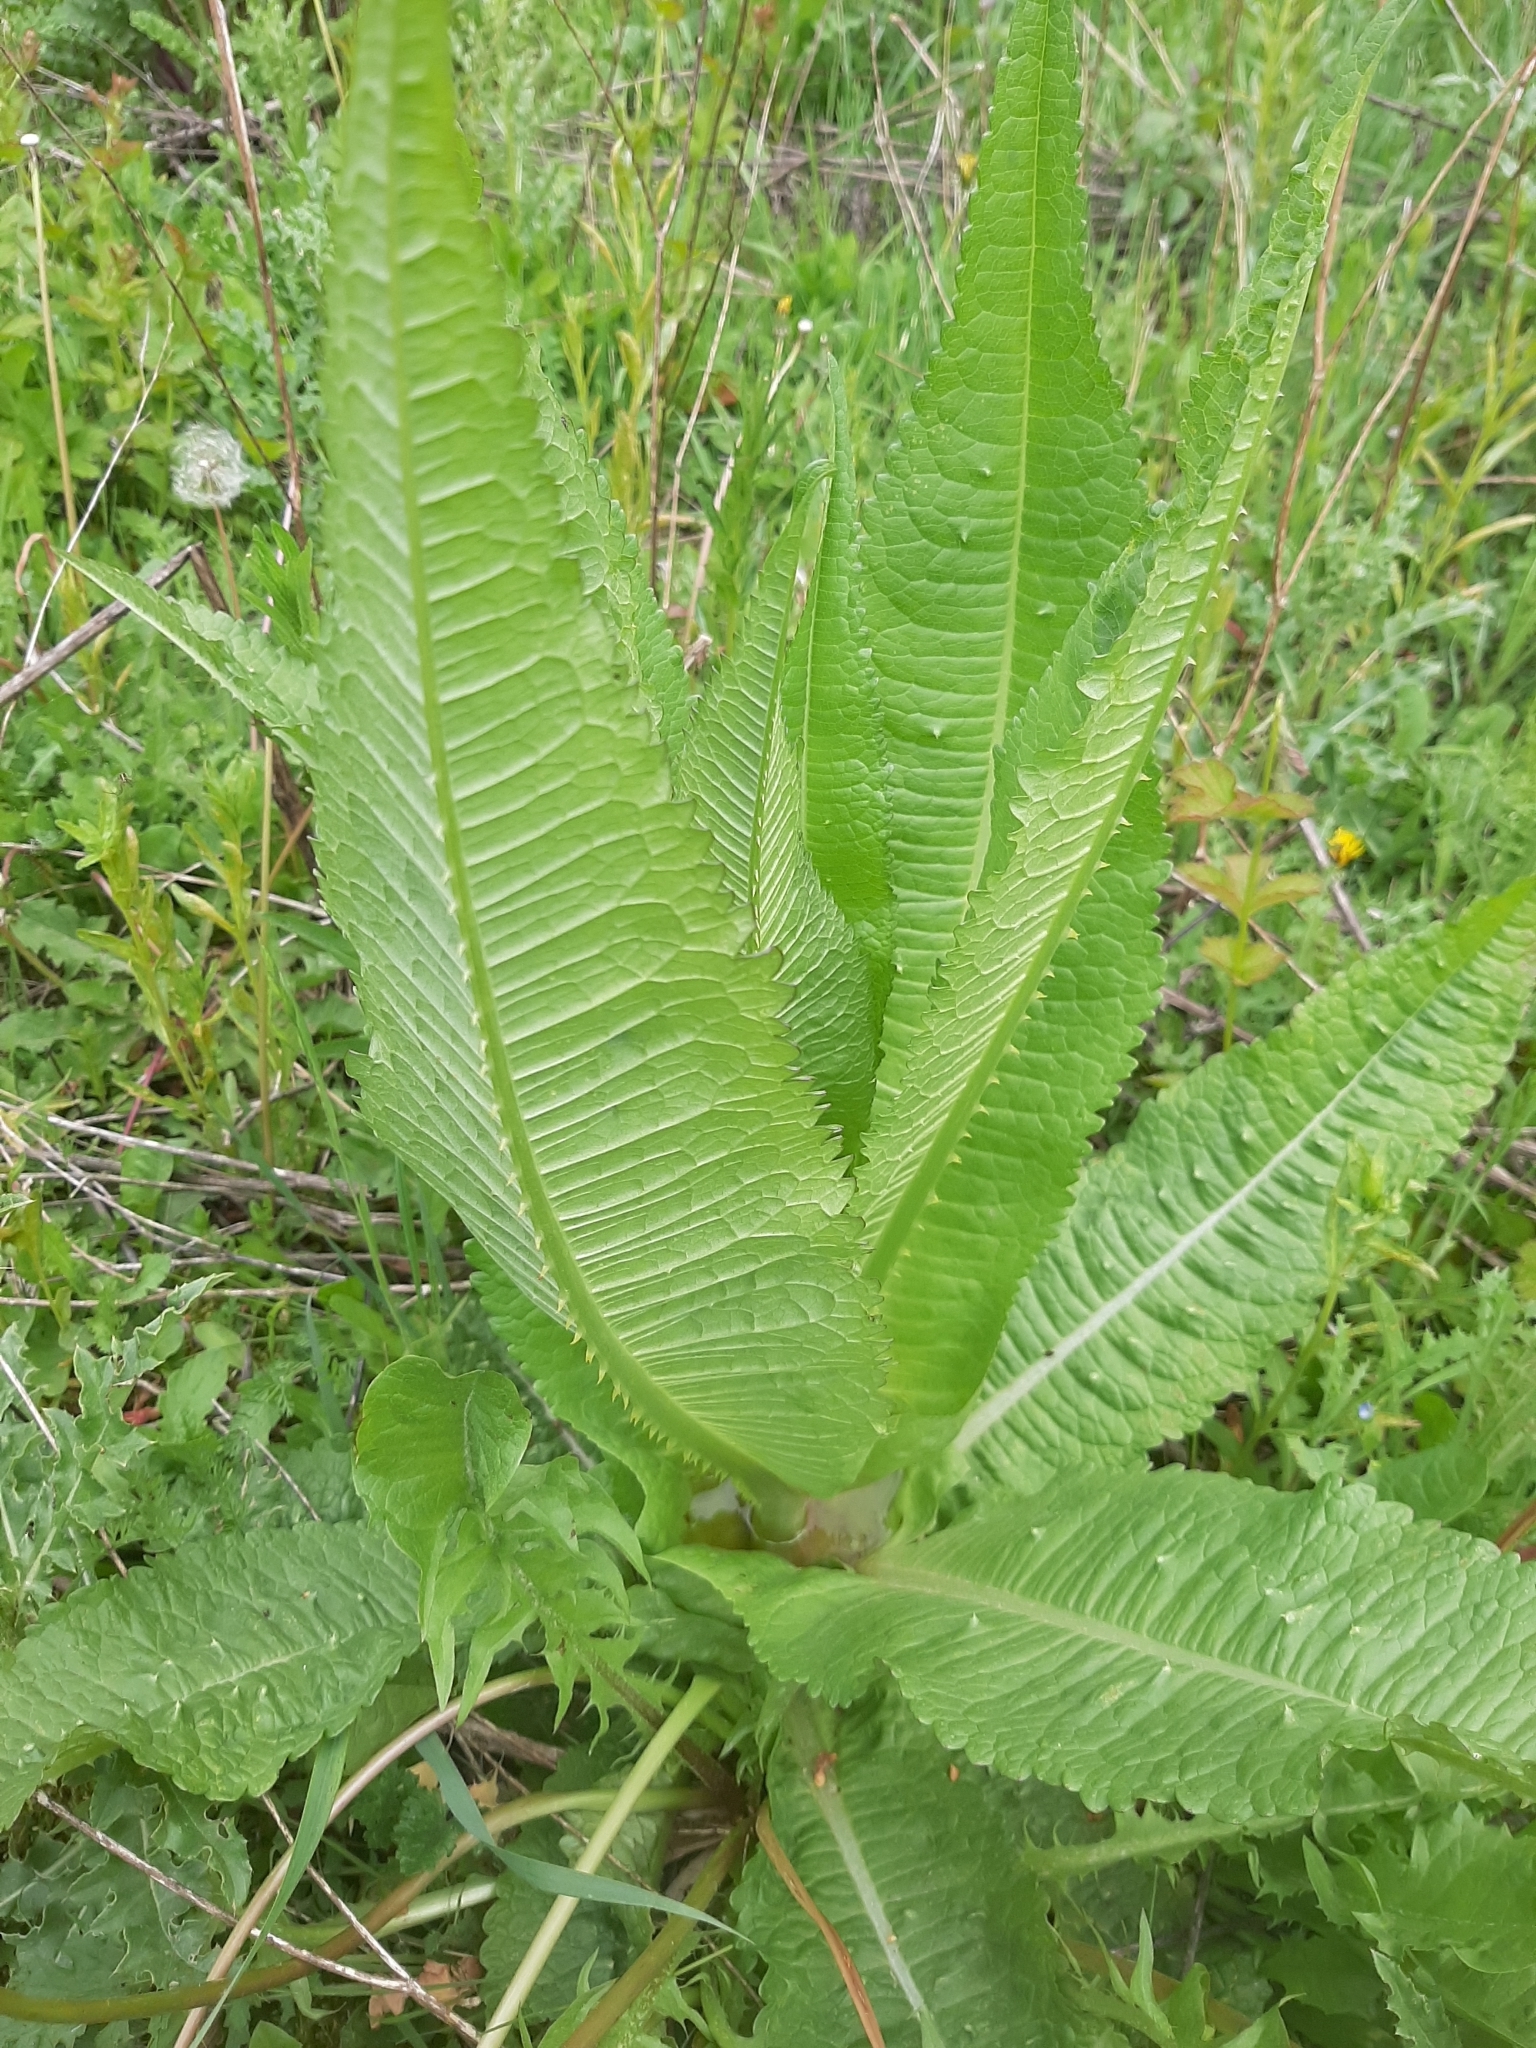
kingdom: Plantae
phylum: Tracheophyta
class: Magnoliopsida
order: Dipsacales
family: Caprifoliaceae
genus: Dipsacus
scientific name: Dipsacus fullonum
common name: Teasel
